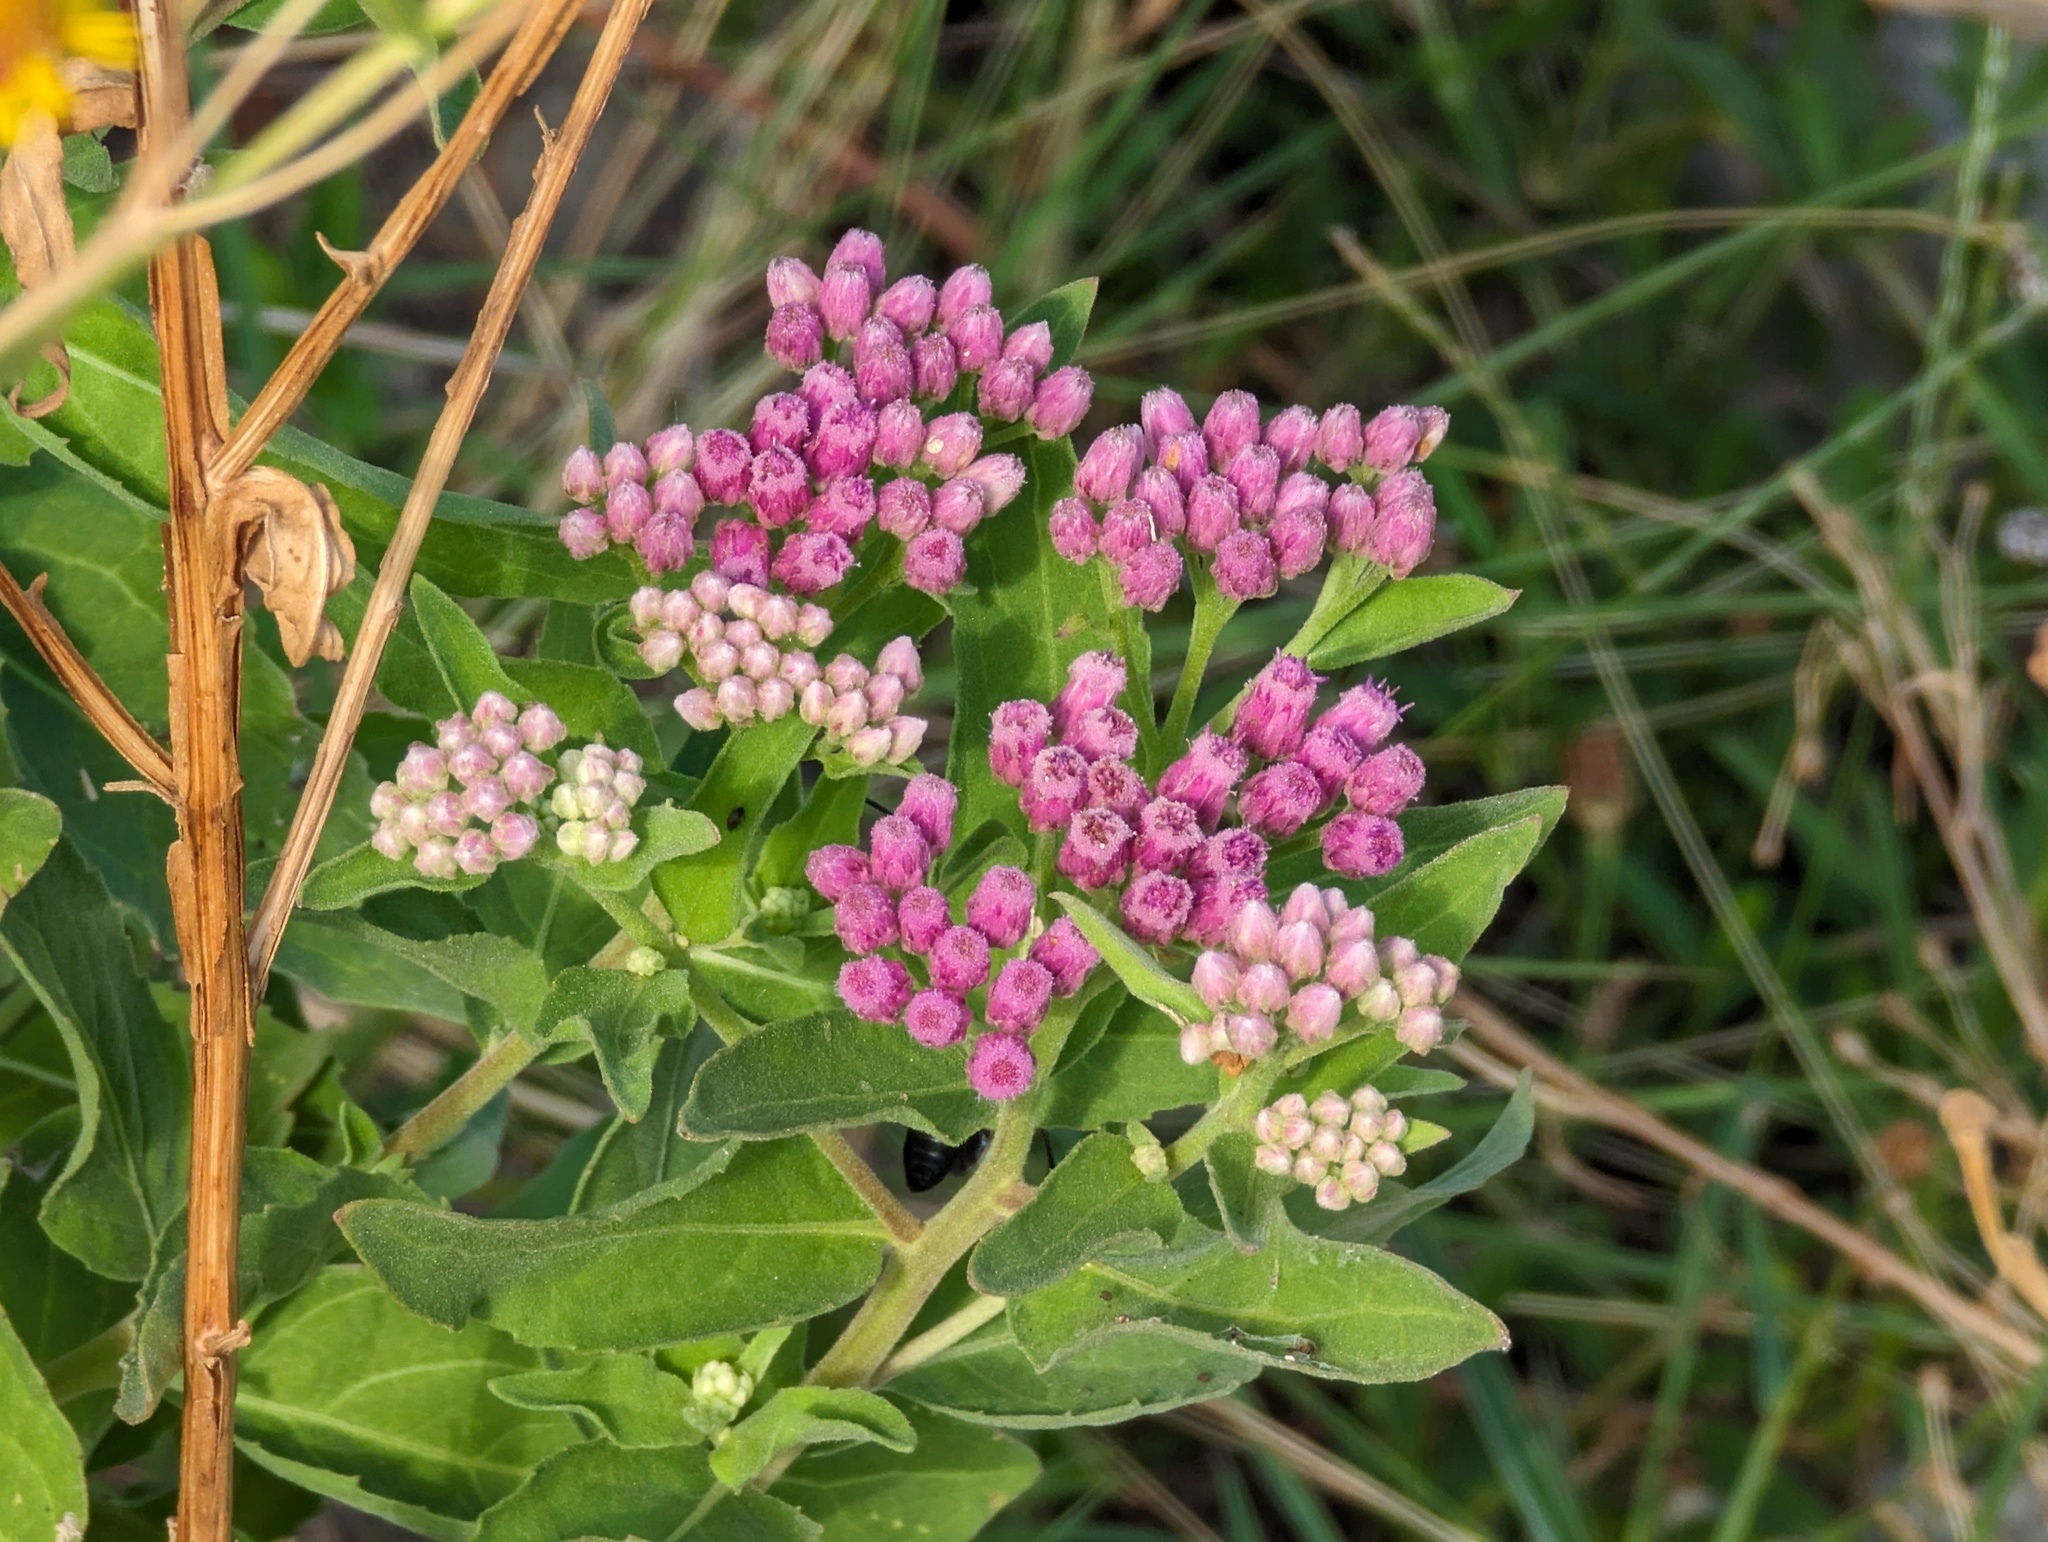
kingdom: Plantae
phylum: Tracheophyta
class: Magnoliopsida
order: Asterales
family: Asteraceae
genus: Pluchea
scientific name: Pluchea odorata
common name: Saltmarsh fleabane
